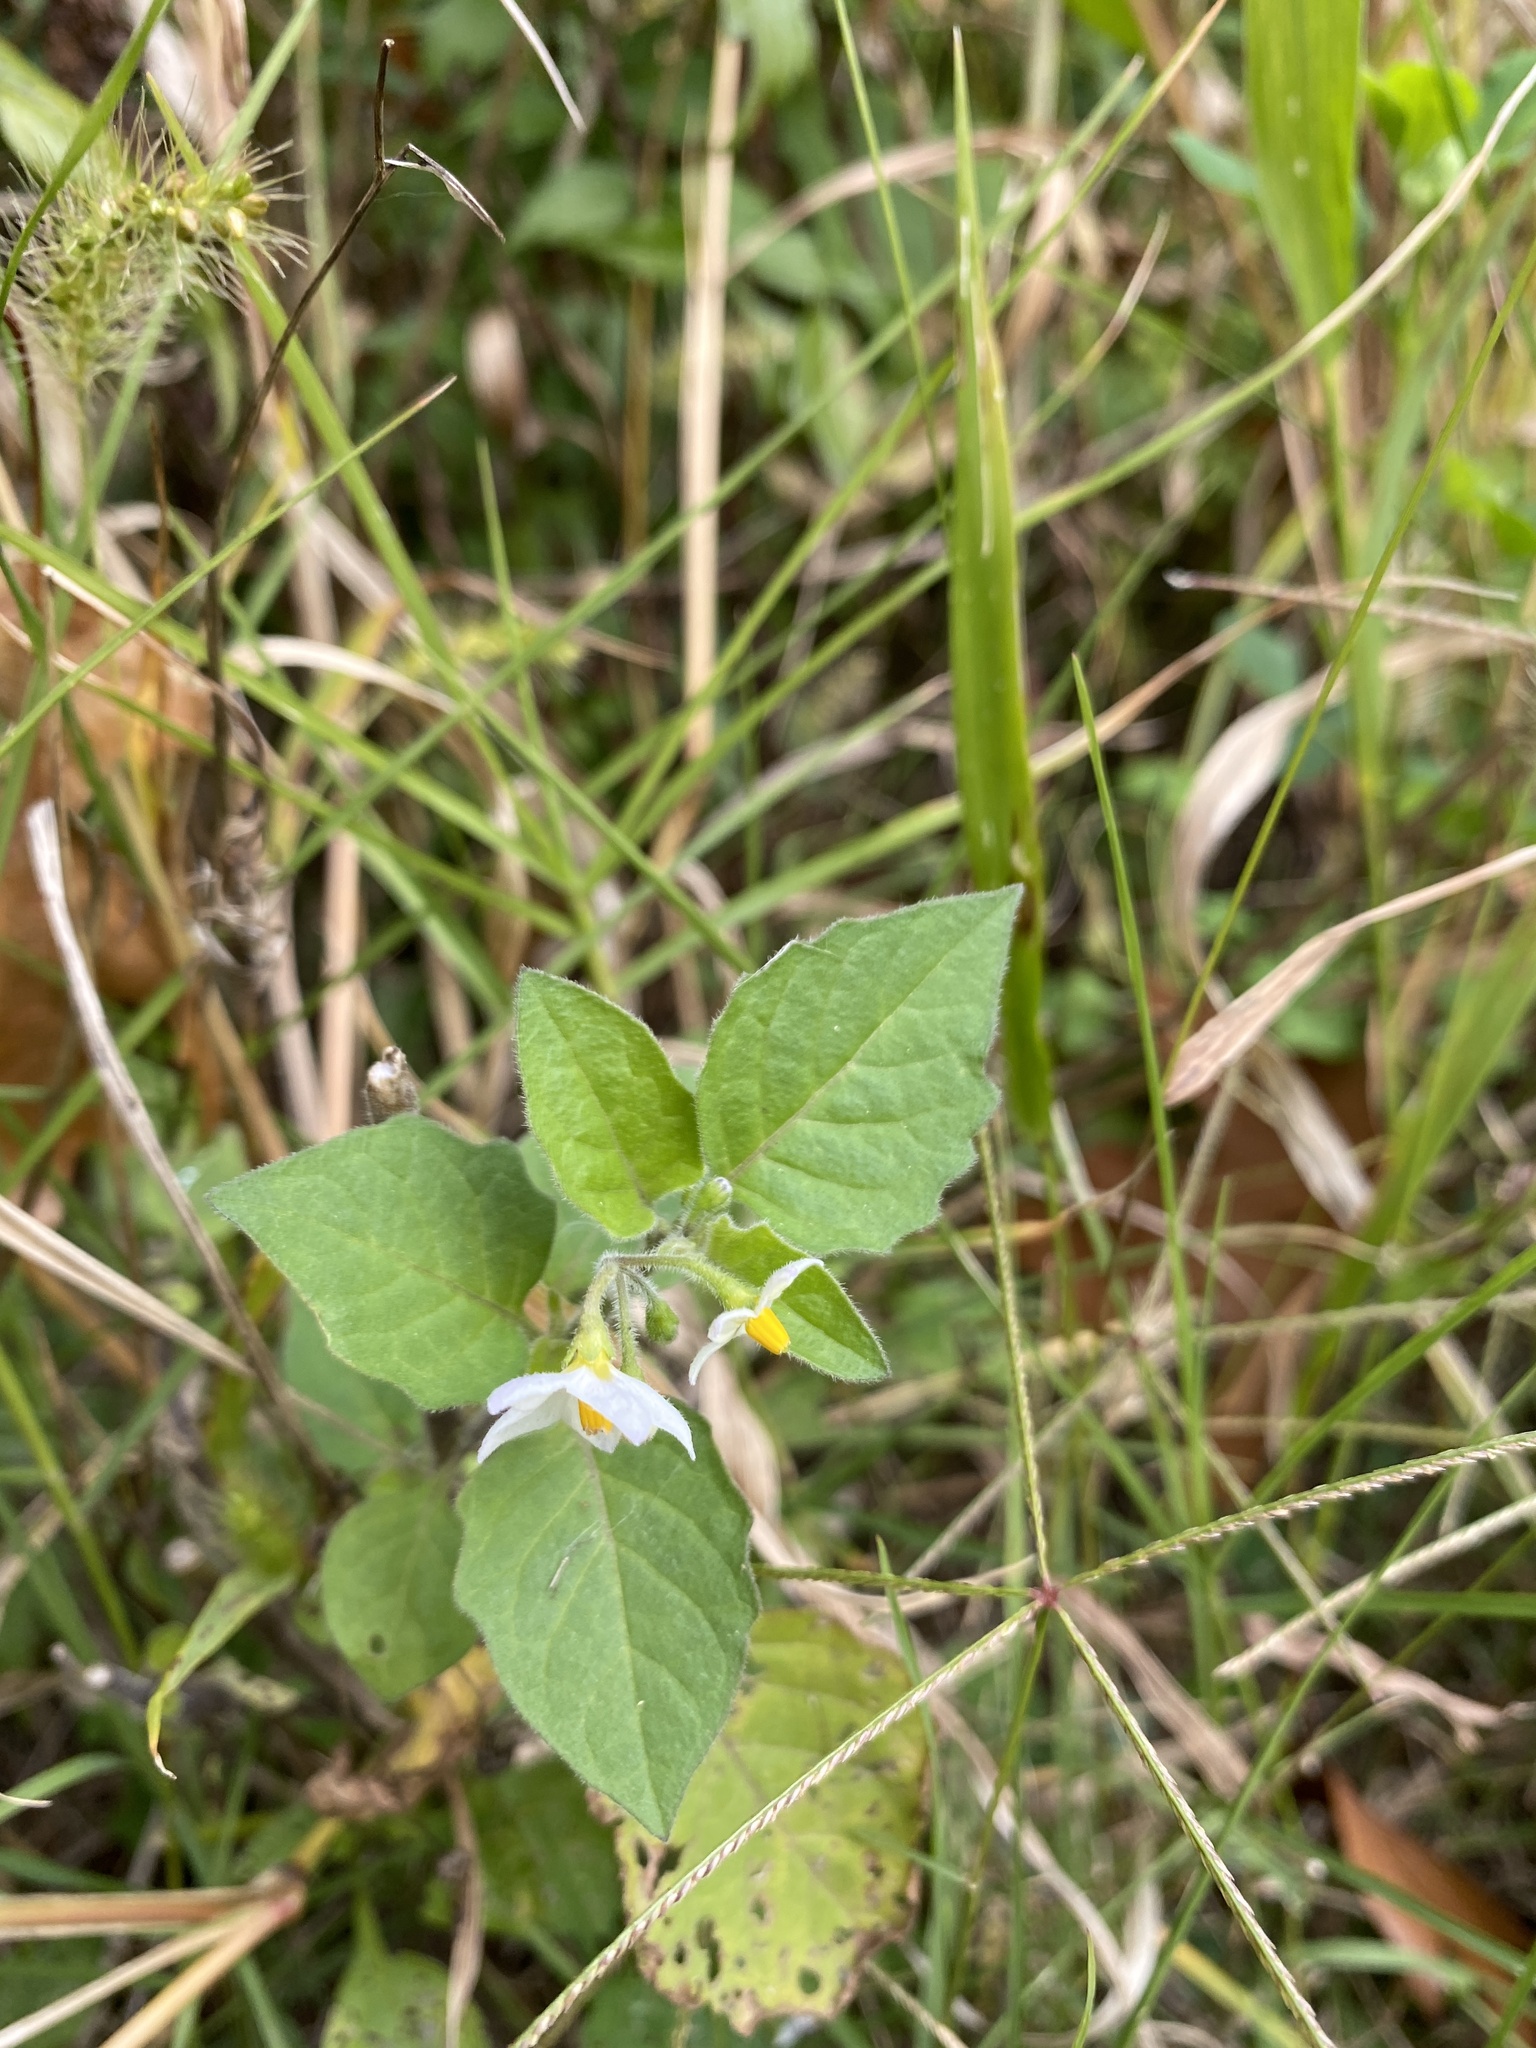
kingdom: Plantae
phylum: Tracheophyta
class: Magnoliopsida
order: Solanales
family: Solanaceae
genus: Solanum
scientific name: Solanum nigrum
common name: Black nightshade
